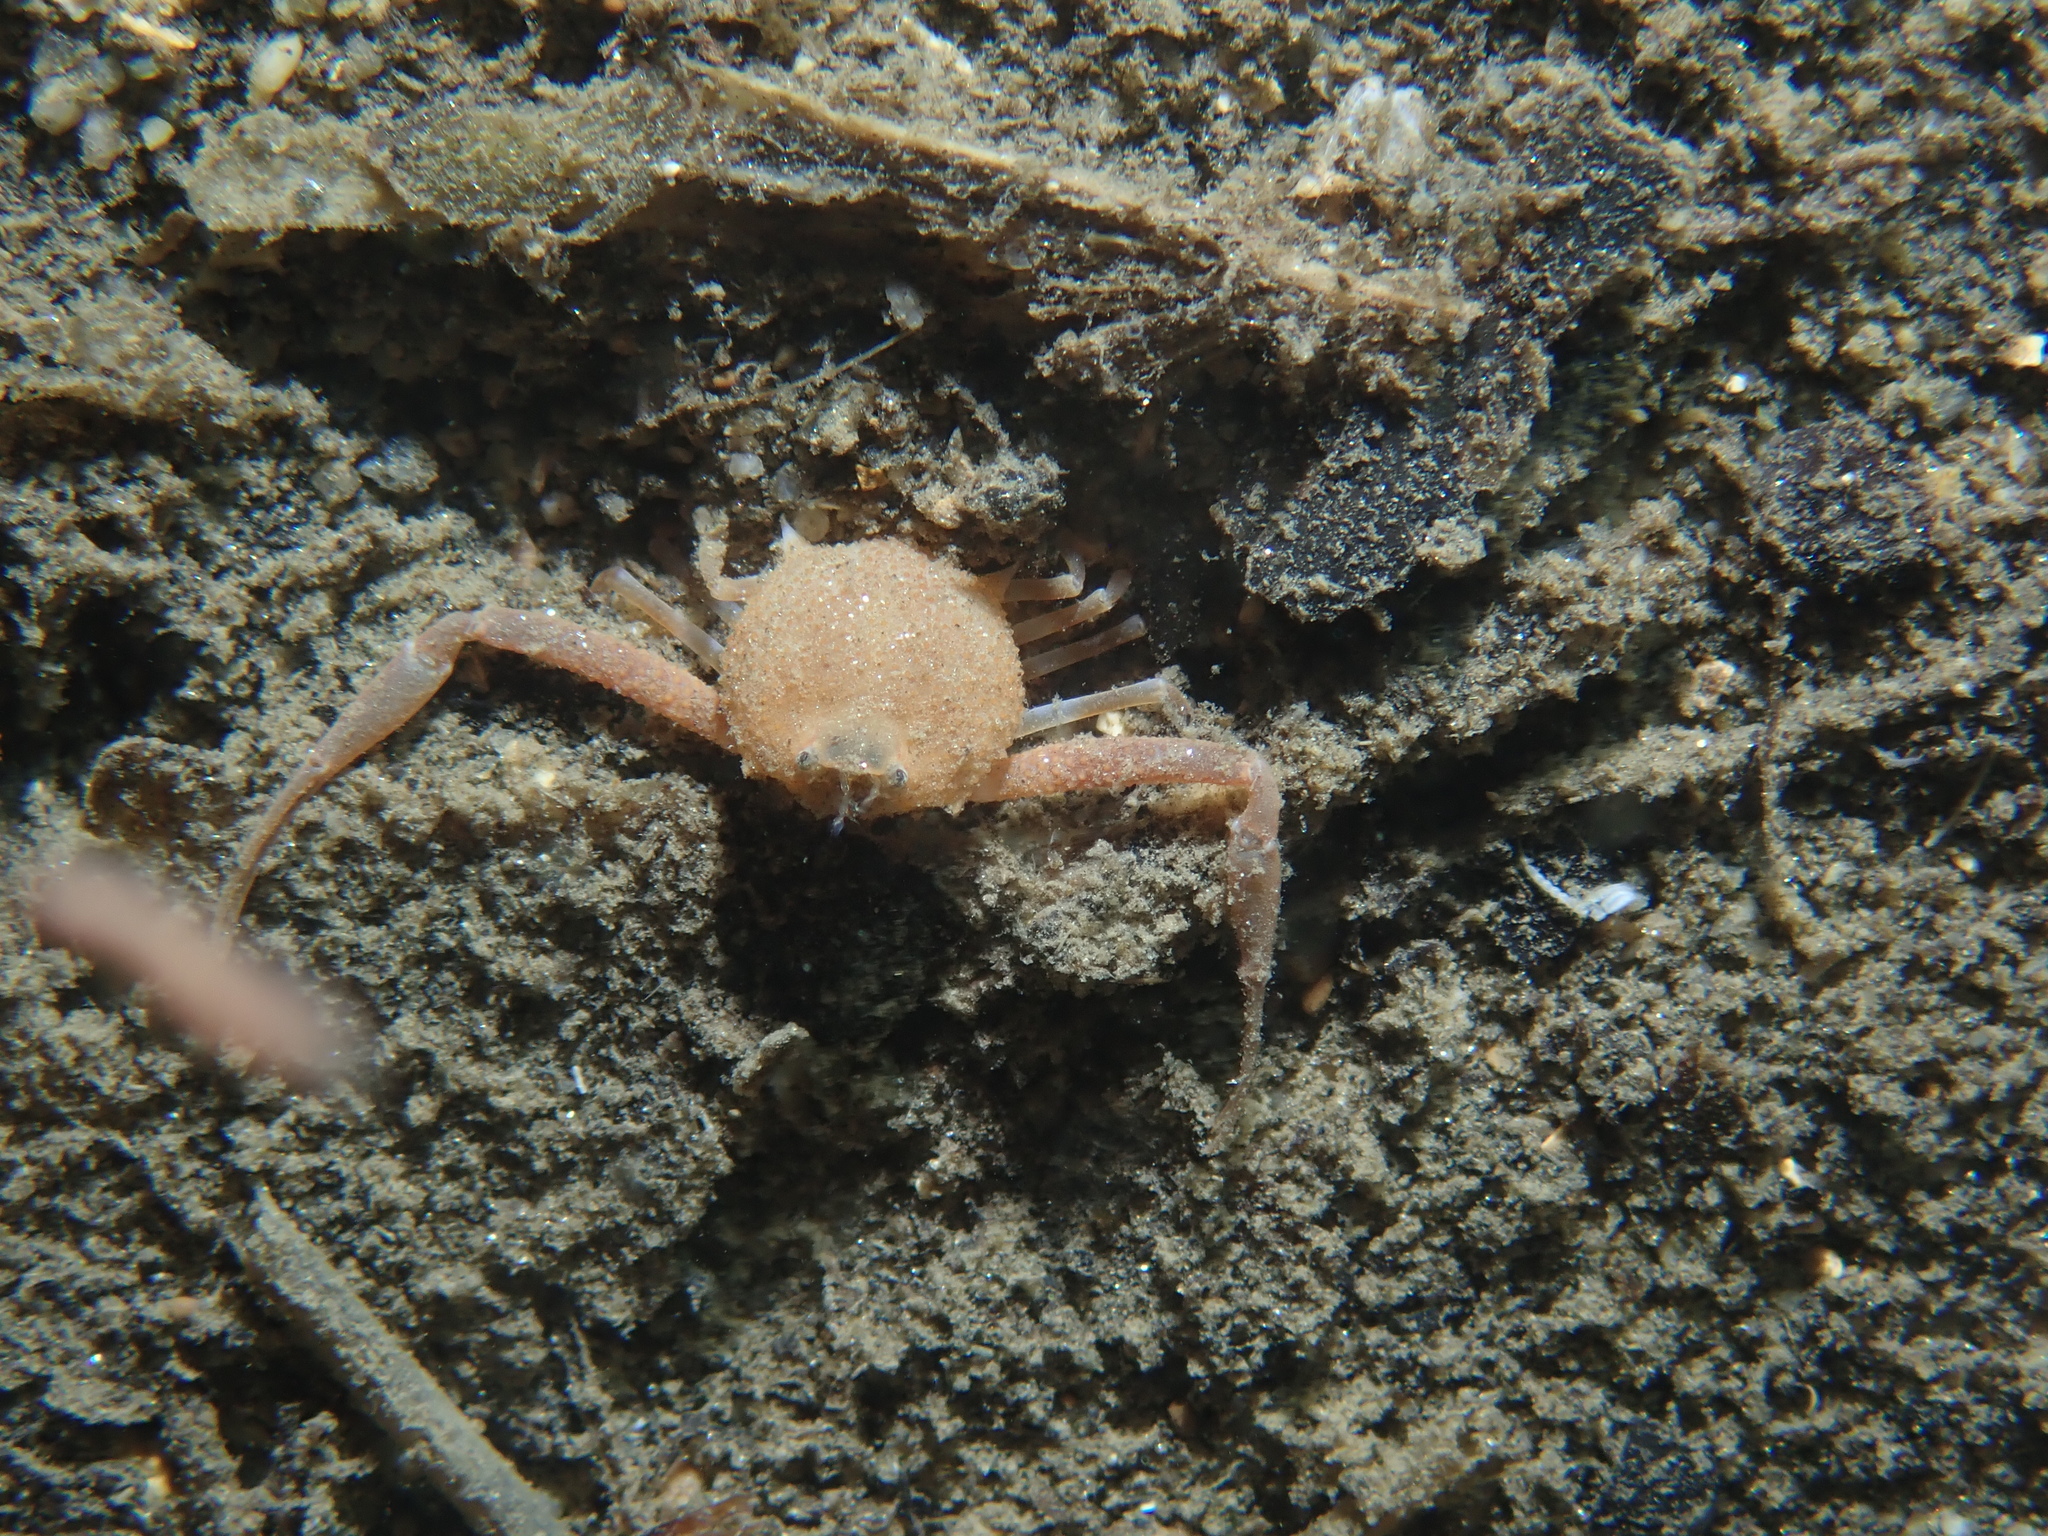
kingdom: Animalia
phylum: Arthropoda
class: Malacostraca
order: Decapoda
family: Leucosiidae
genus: Ilia
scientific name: Ilia nucleus
